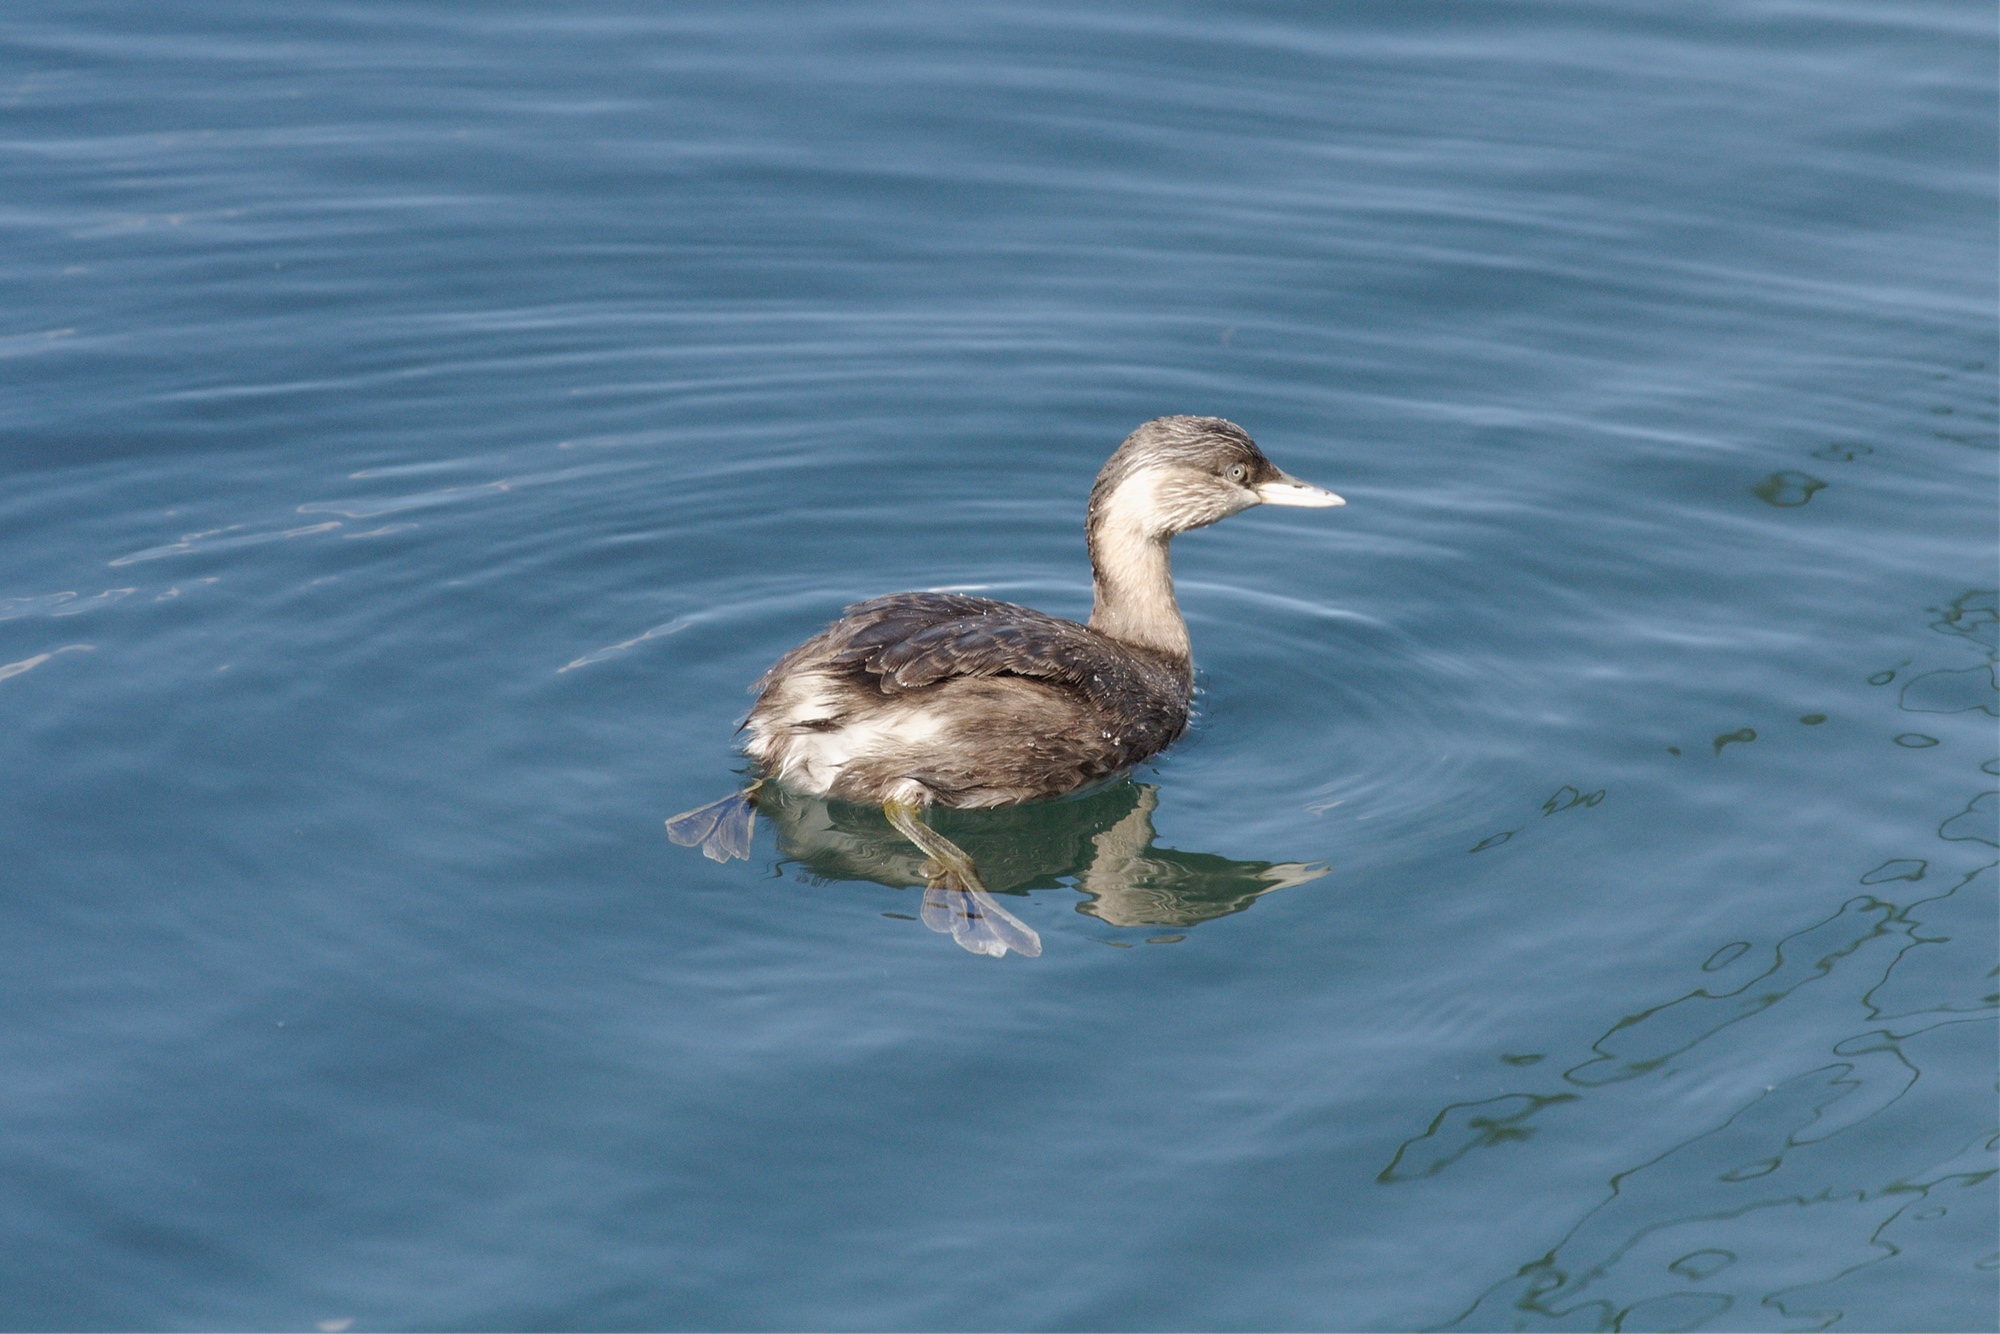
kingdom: Animalia
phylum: Chordata
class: Aves
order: Podicipediformes
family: Podicipedidae
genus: Poliocephalus
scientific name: Poliocephalus poliocephalus
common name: Hoary-headed grebe
